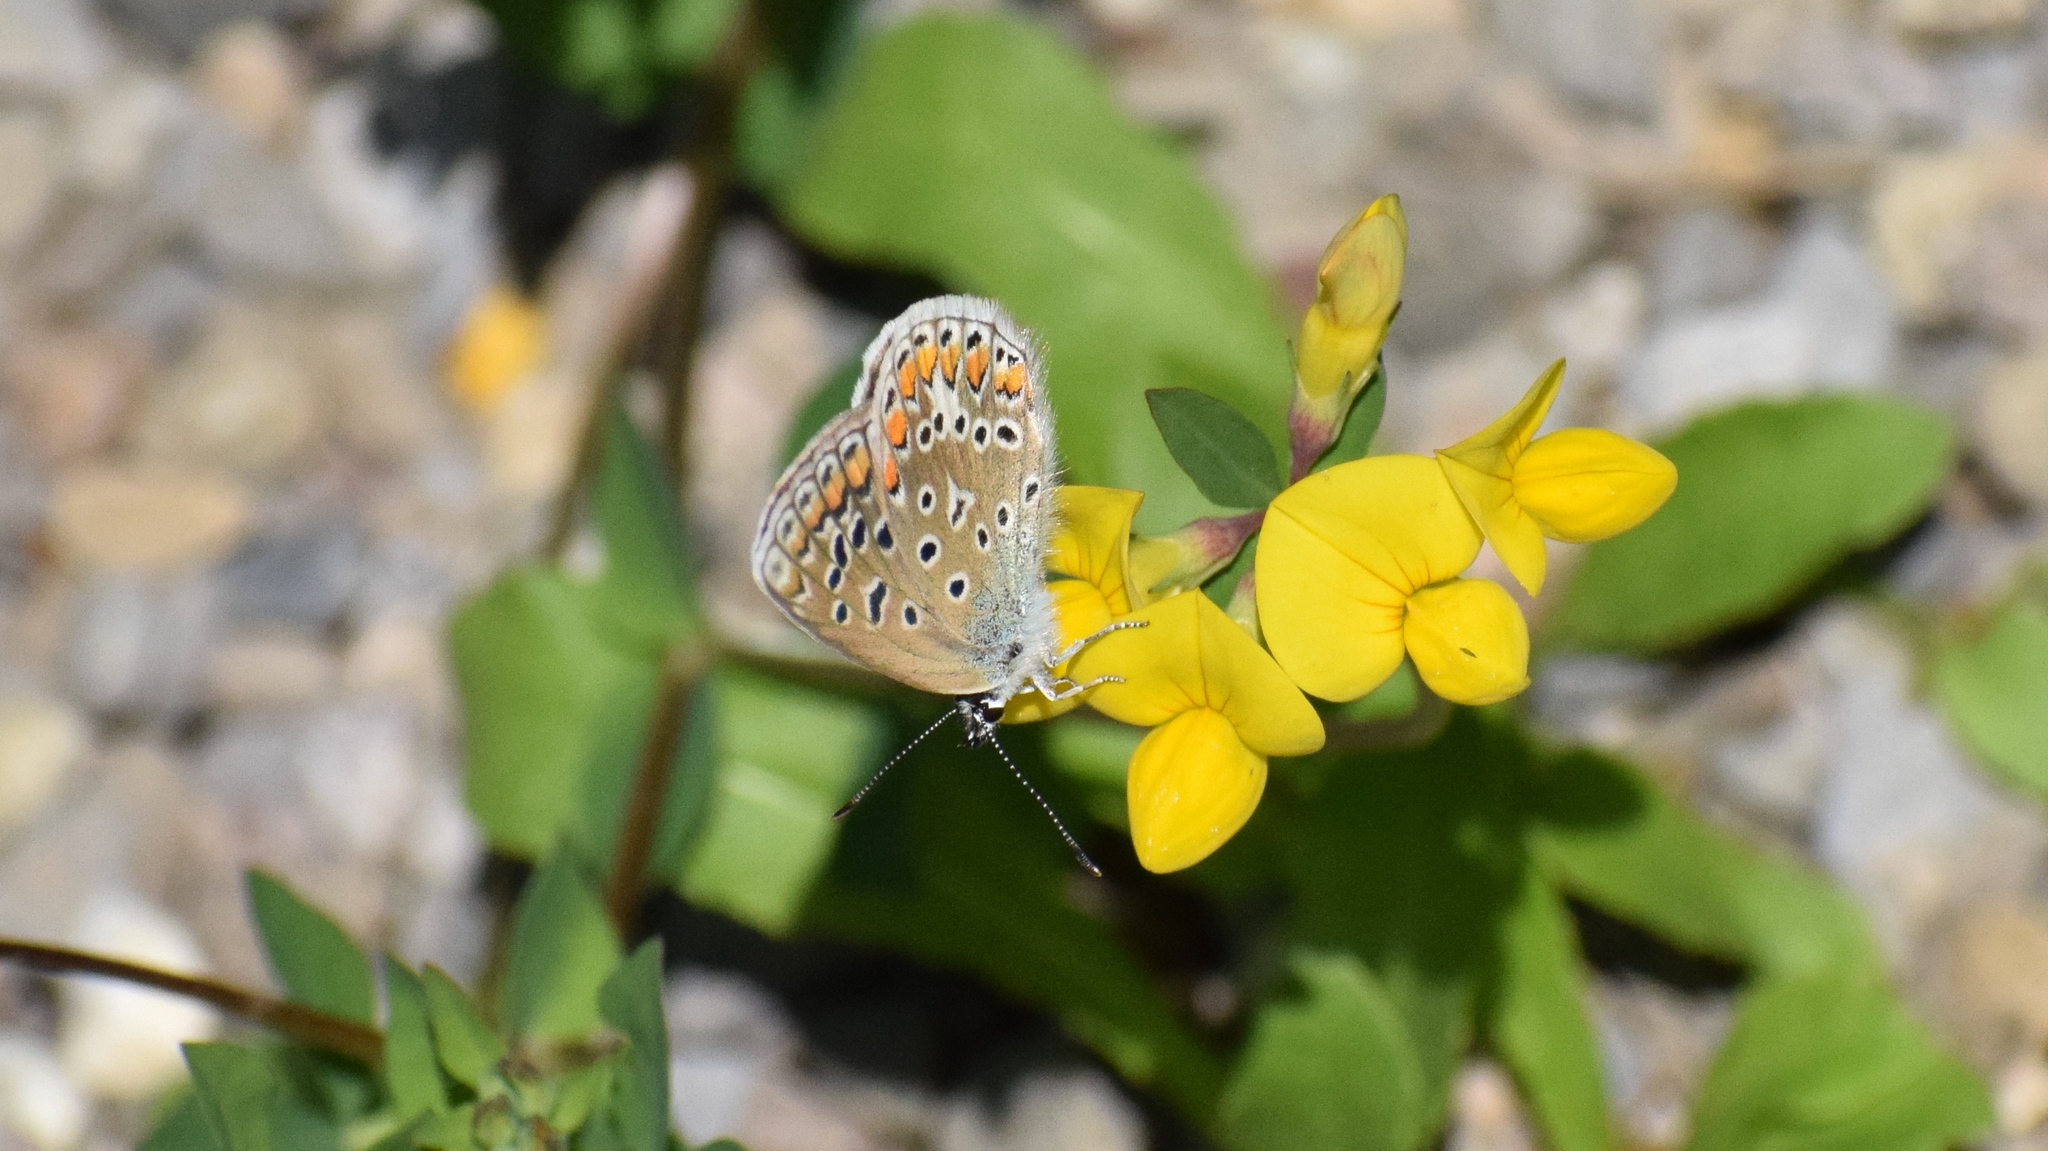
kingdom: Animalia
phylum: Arthropoda
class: Insecta
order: Lepidoptera
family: Lycaenidae
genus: Polyommatus
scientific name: Polyommatus icarus
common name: Common blue
